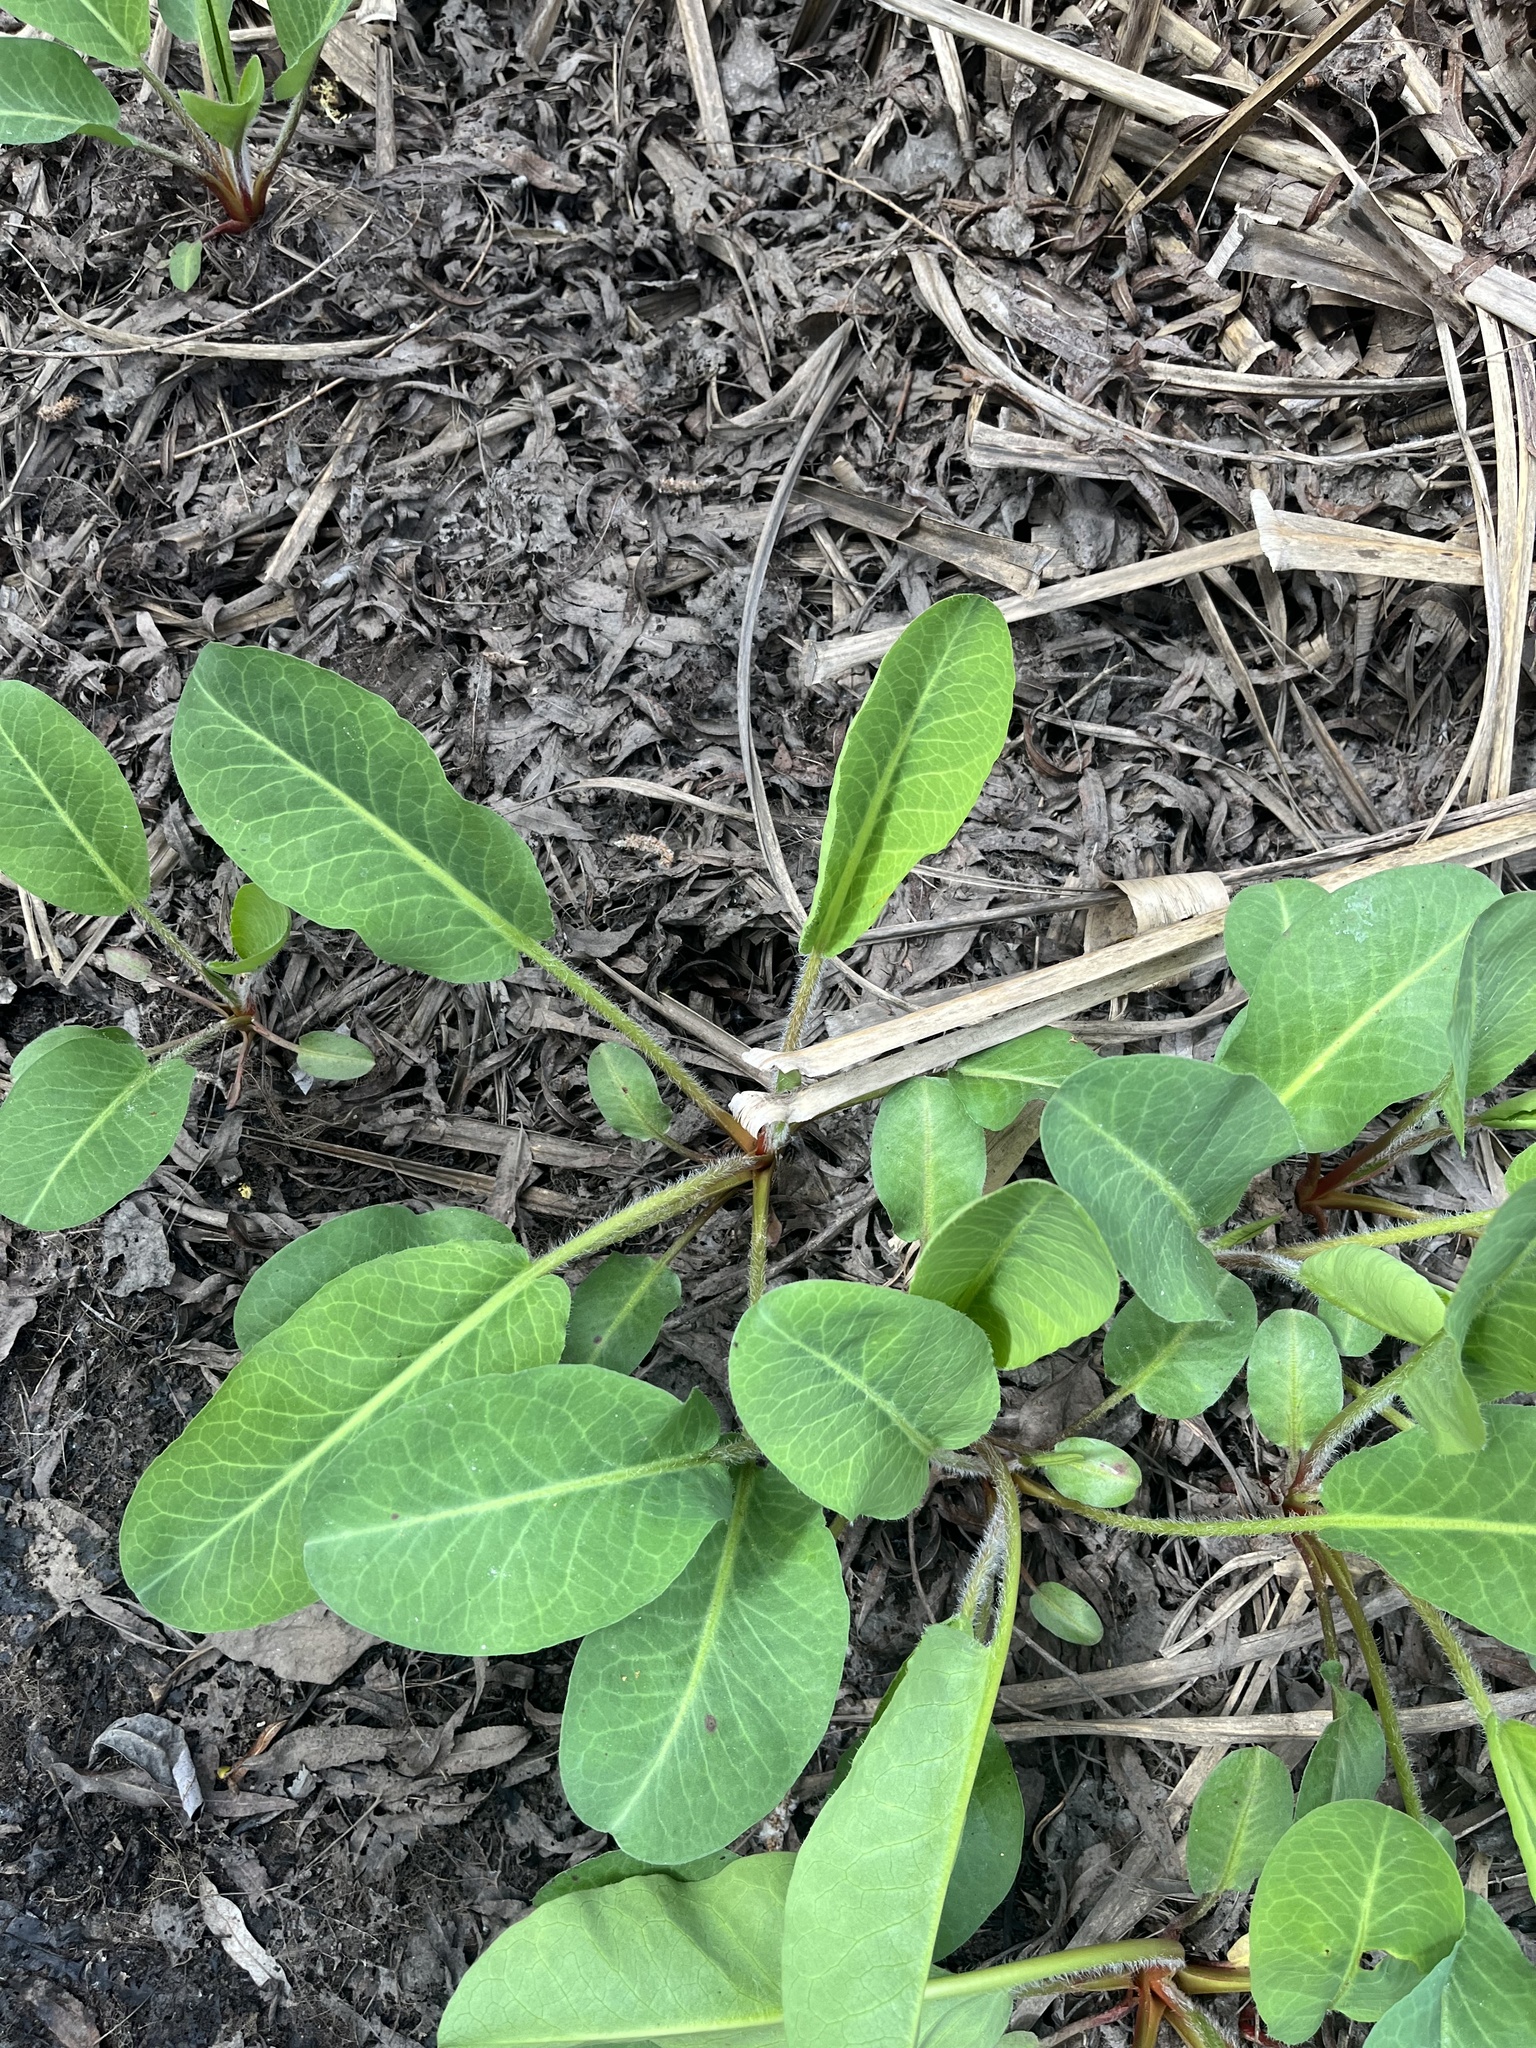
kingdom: Plantae
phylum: Tracheophyta
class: Magnoliopsida
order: Piperales
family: Saururaceae
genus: Anemopsis
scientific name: Anemopsis californica
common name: Apache-beads
